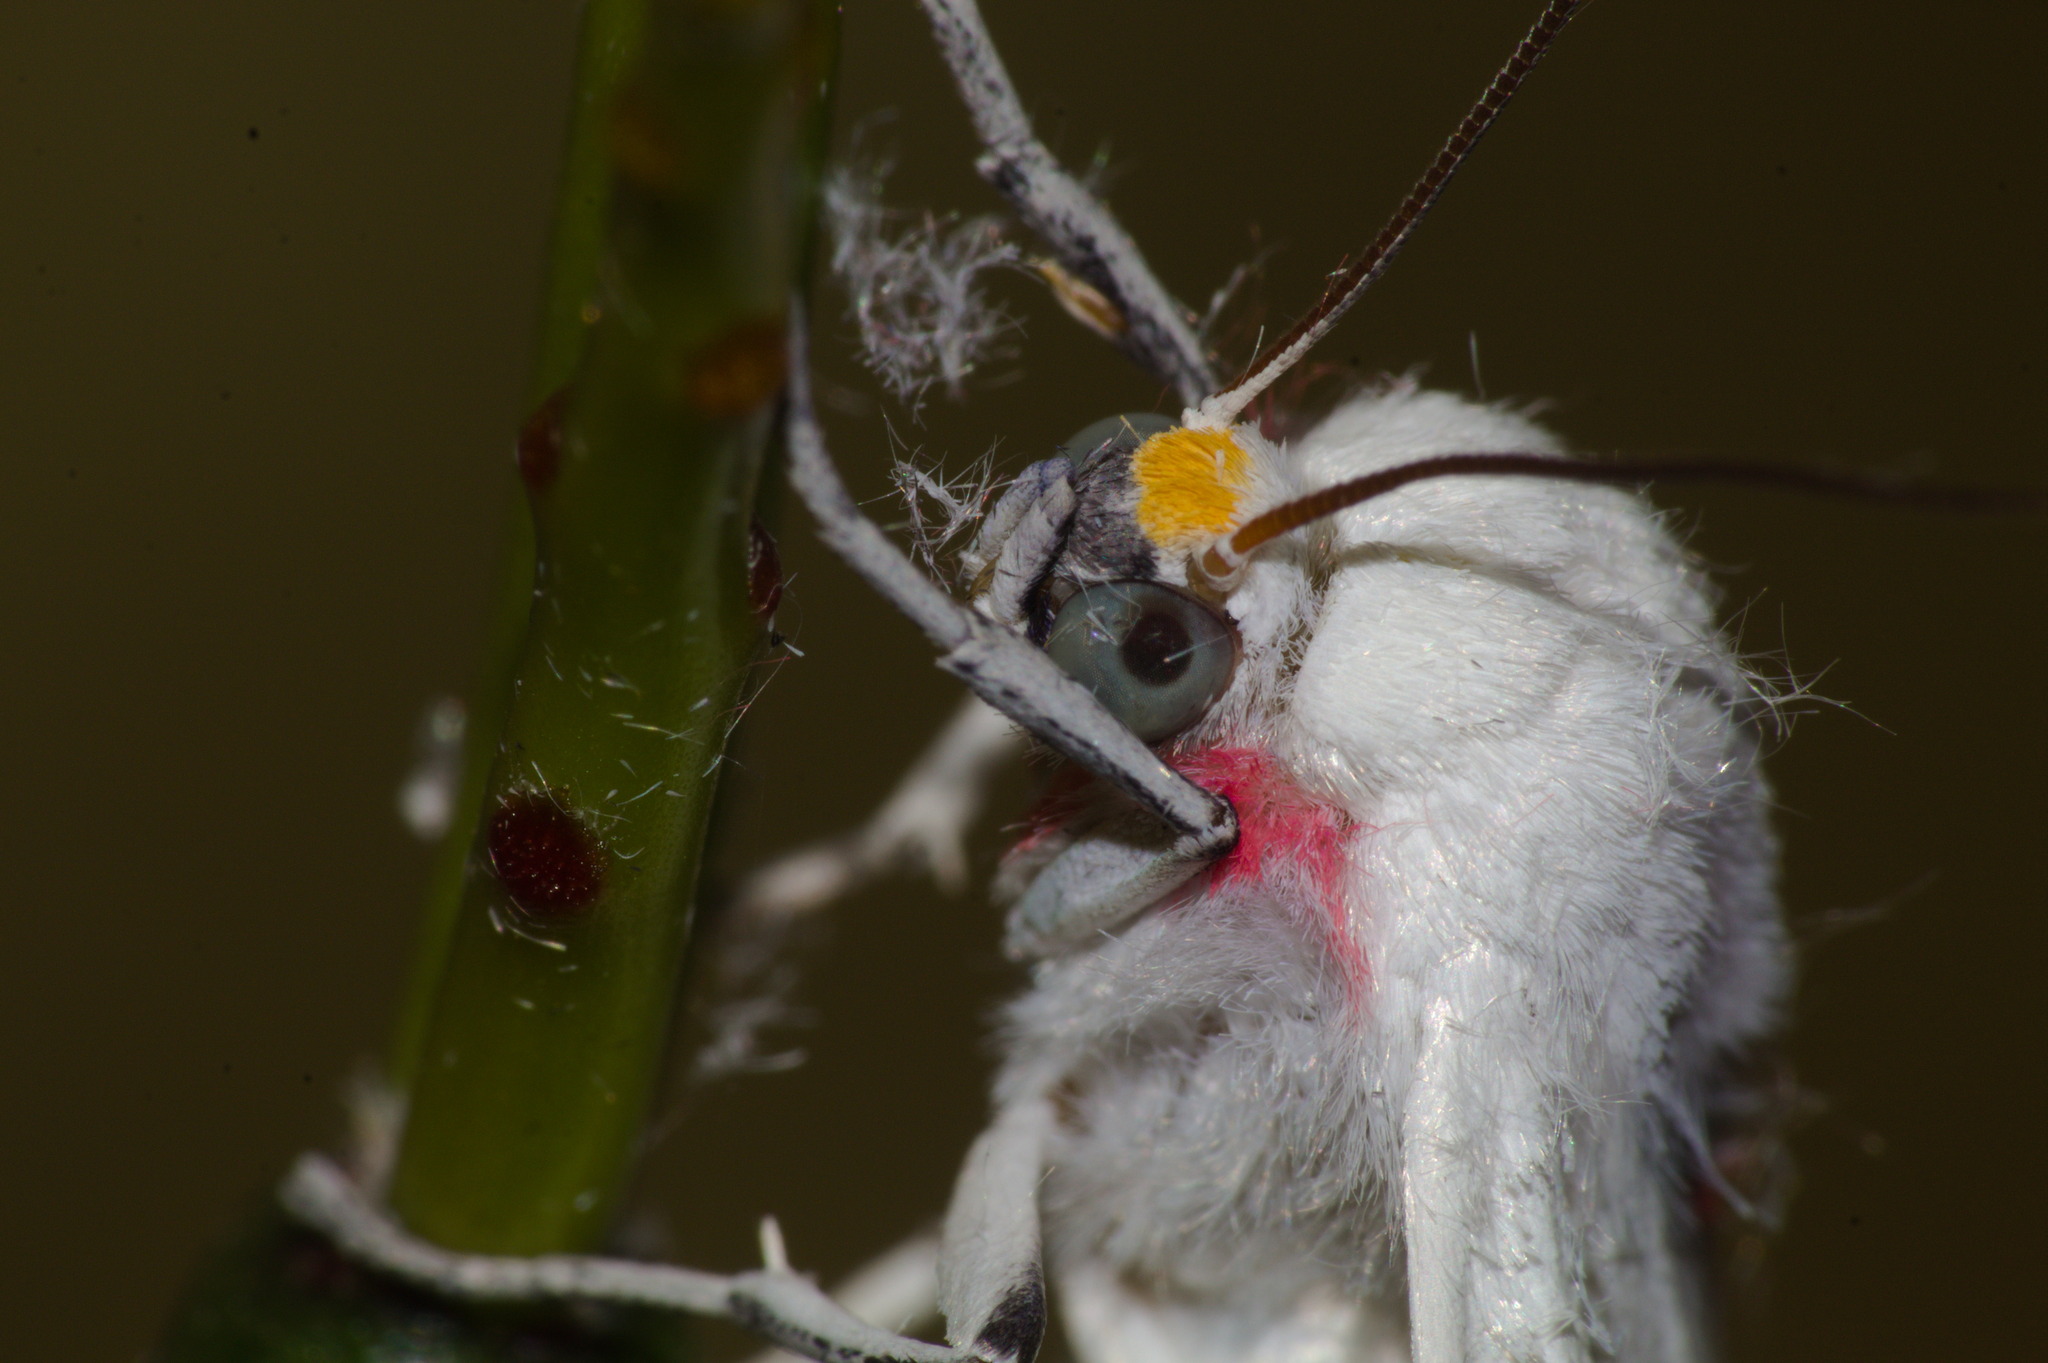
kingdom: Animalia
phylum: Arthropoda
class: Insecta
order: Lepidoptera
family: Erebidae
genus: Eupseudosoma
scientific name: Eupseudosoma involuta
